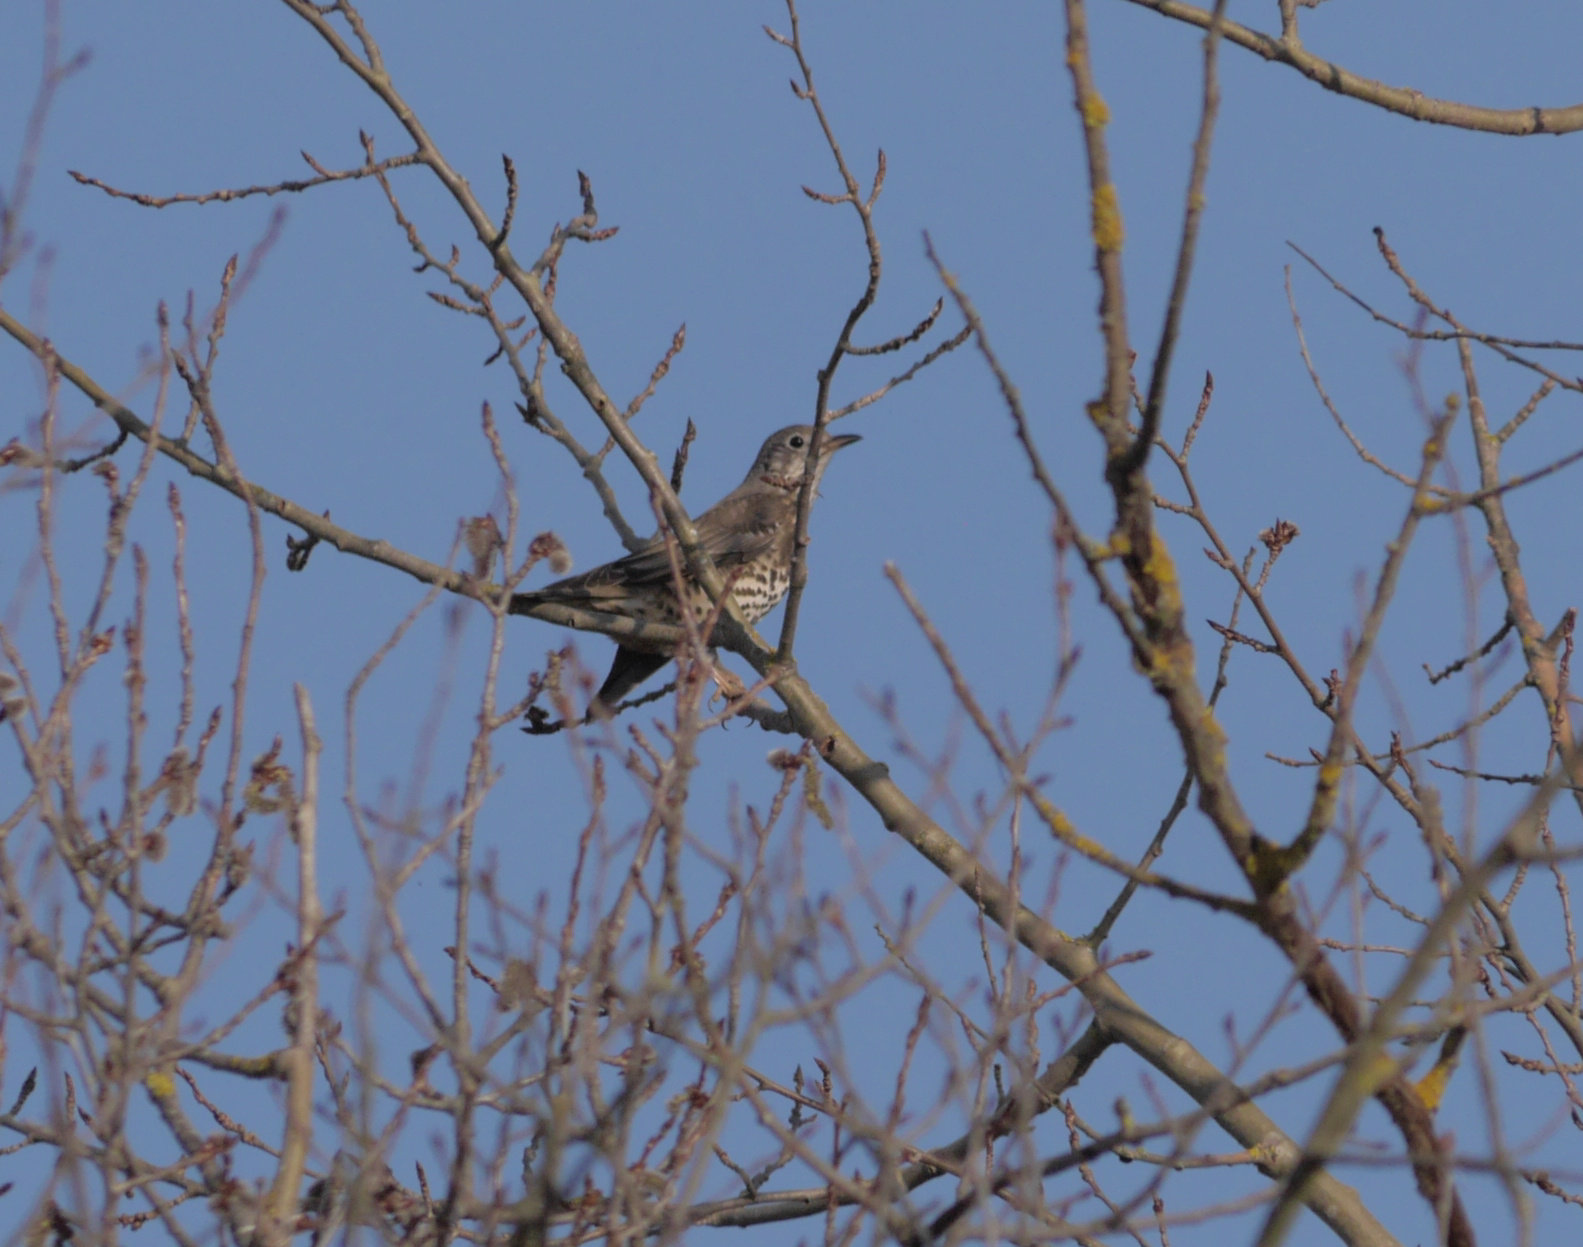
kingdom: Animalia
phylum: Chordata
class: Aves
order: Passeriformes
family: Turdidae
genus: Turdus
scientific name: Turdus viscivorus
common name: Mistle thrush
